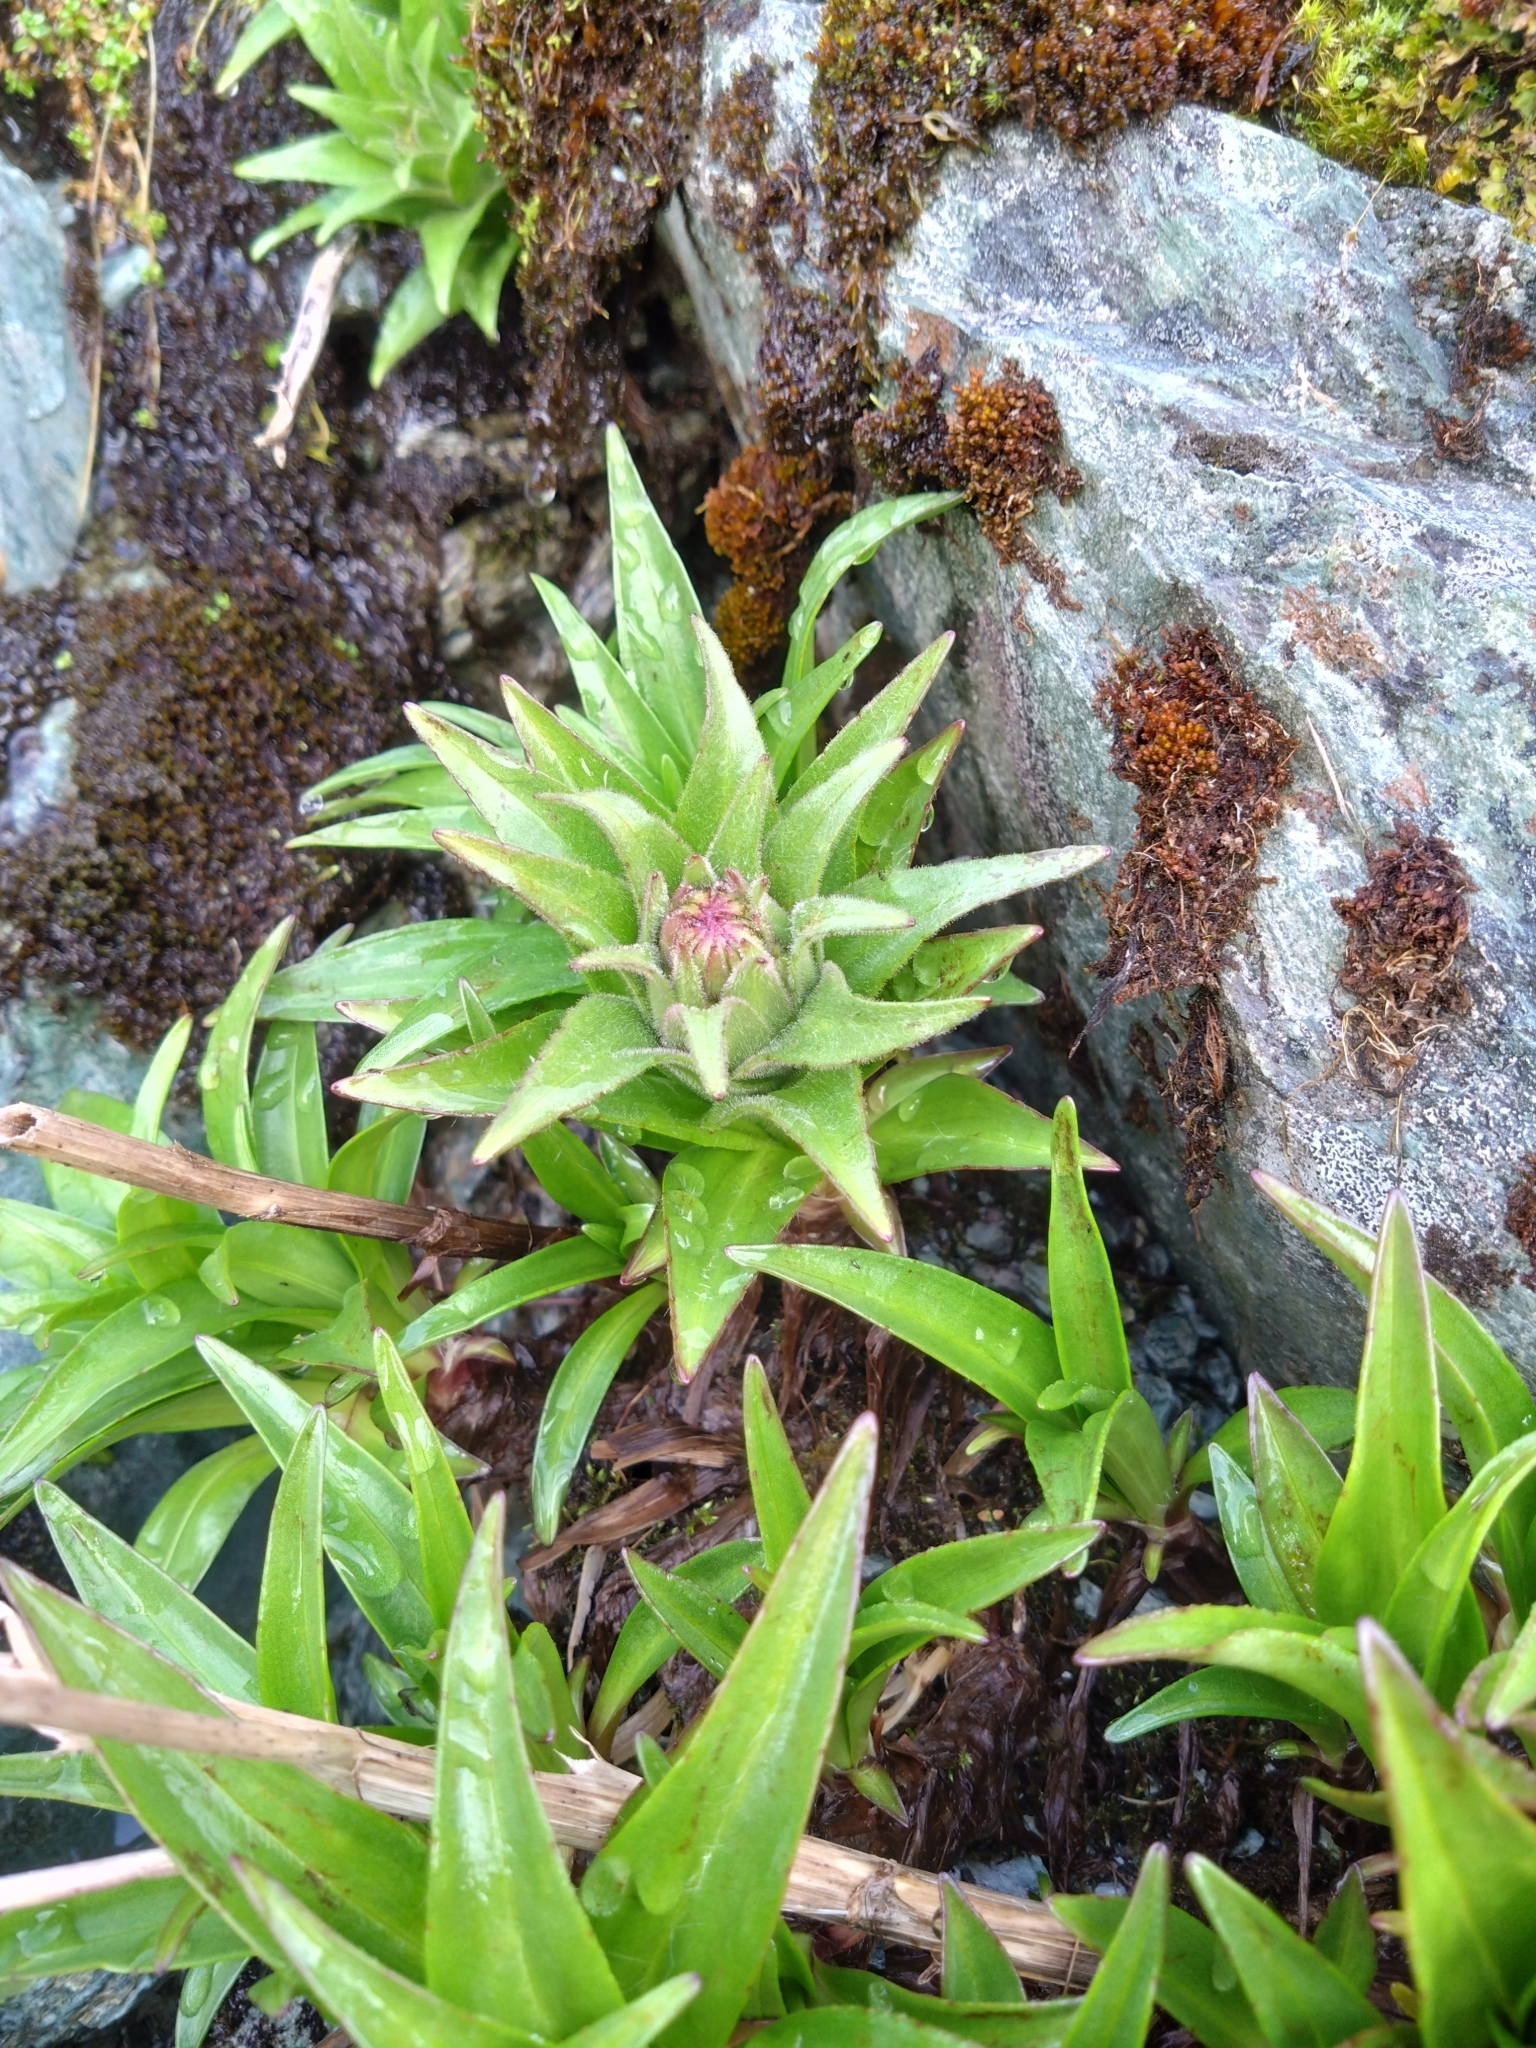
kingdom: Plantae
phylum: Tracheophyta
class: Magnoliopsida
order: Asterales
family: Asteraceae
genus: Dolichoglottis
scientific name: Dolichoglottis scorzoneroides
